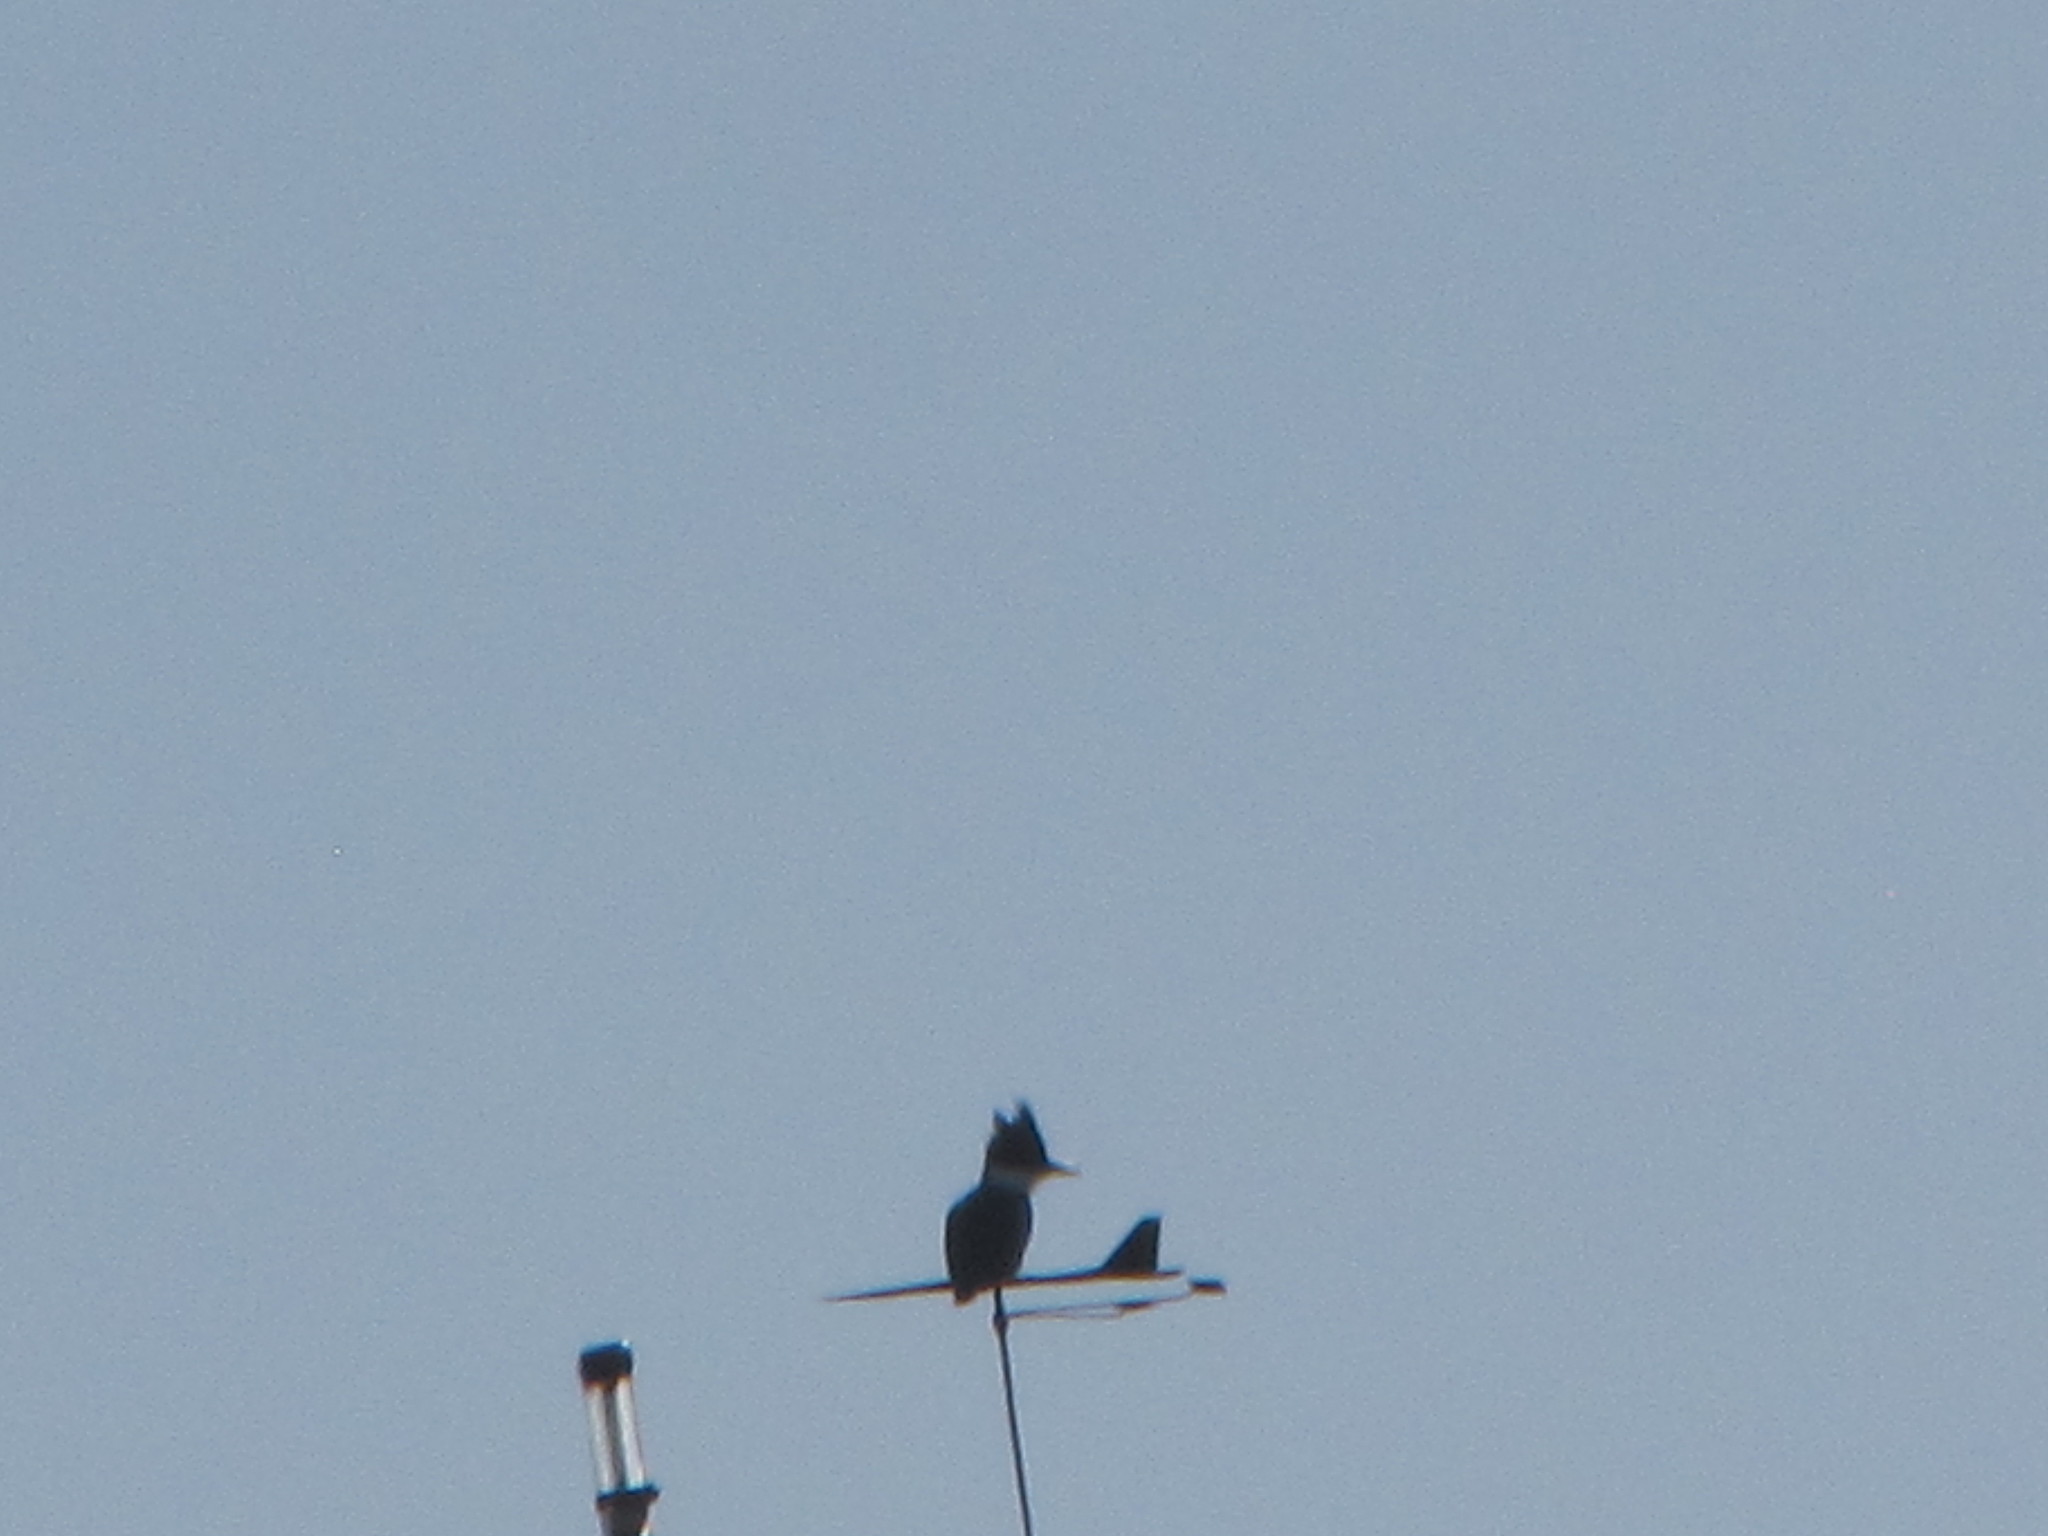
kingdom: Animalia
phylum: Chordata
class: Aves
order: Coraciiformes
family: Alcedinidae
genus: Megaceryle
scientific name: Megaceryle alcyon
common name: Belted kingfisher
